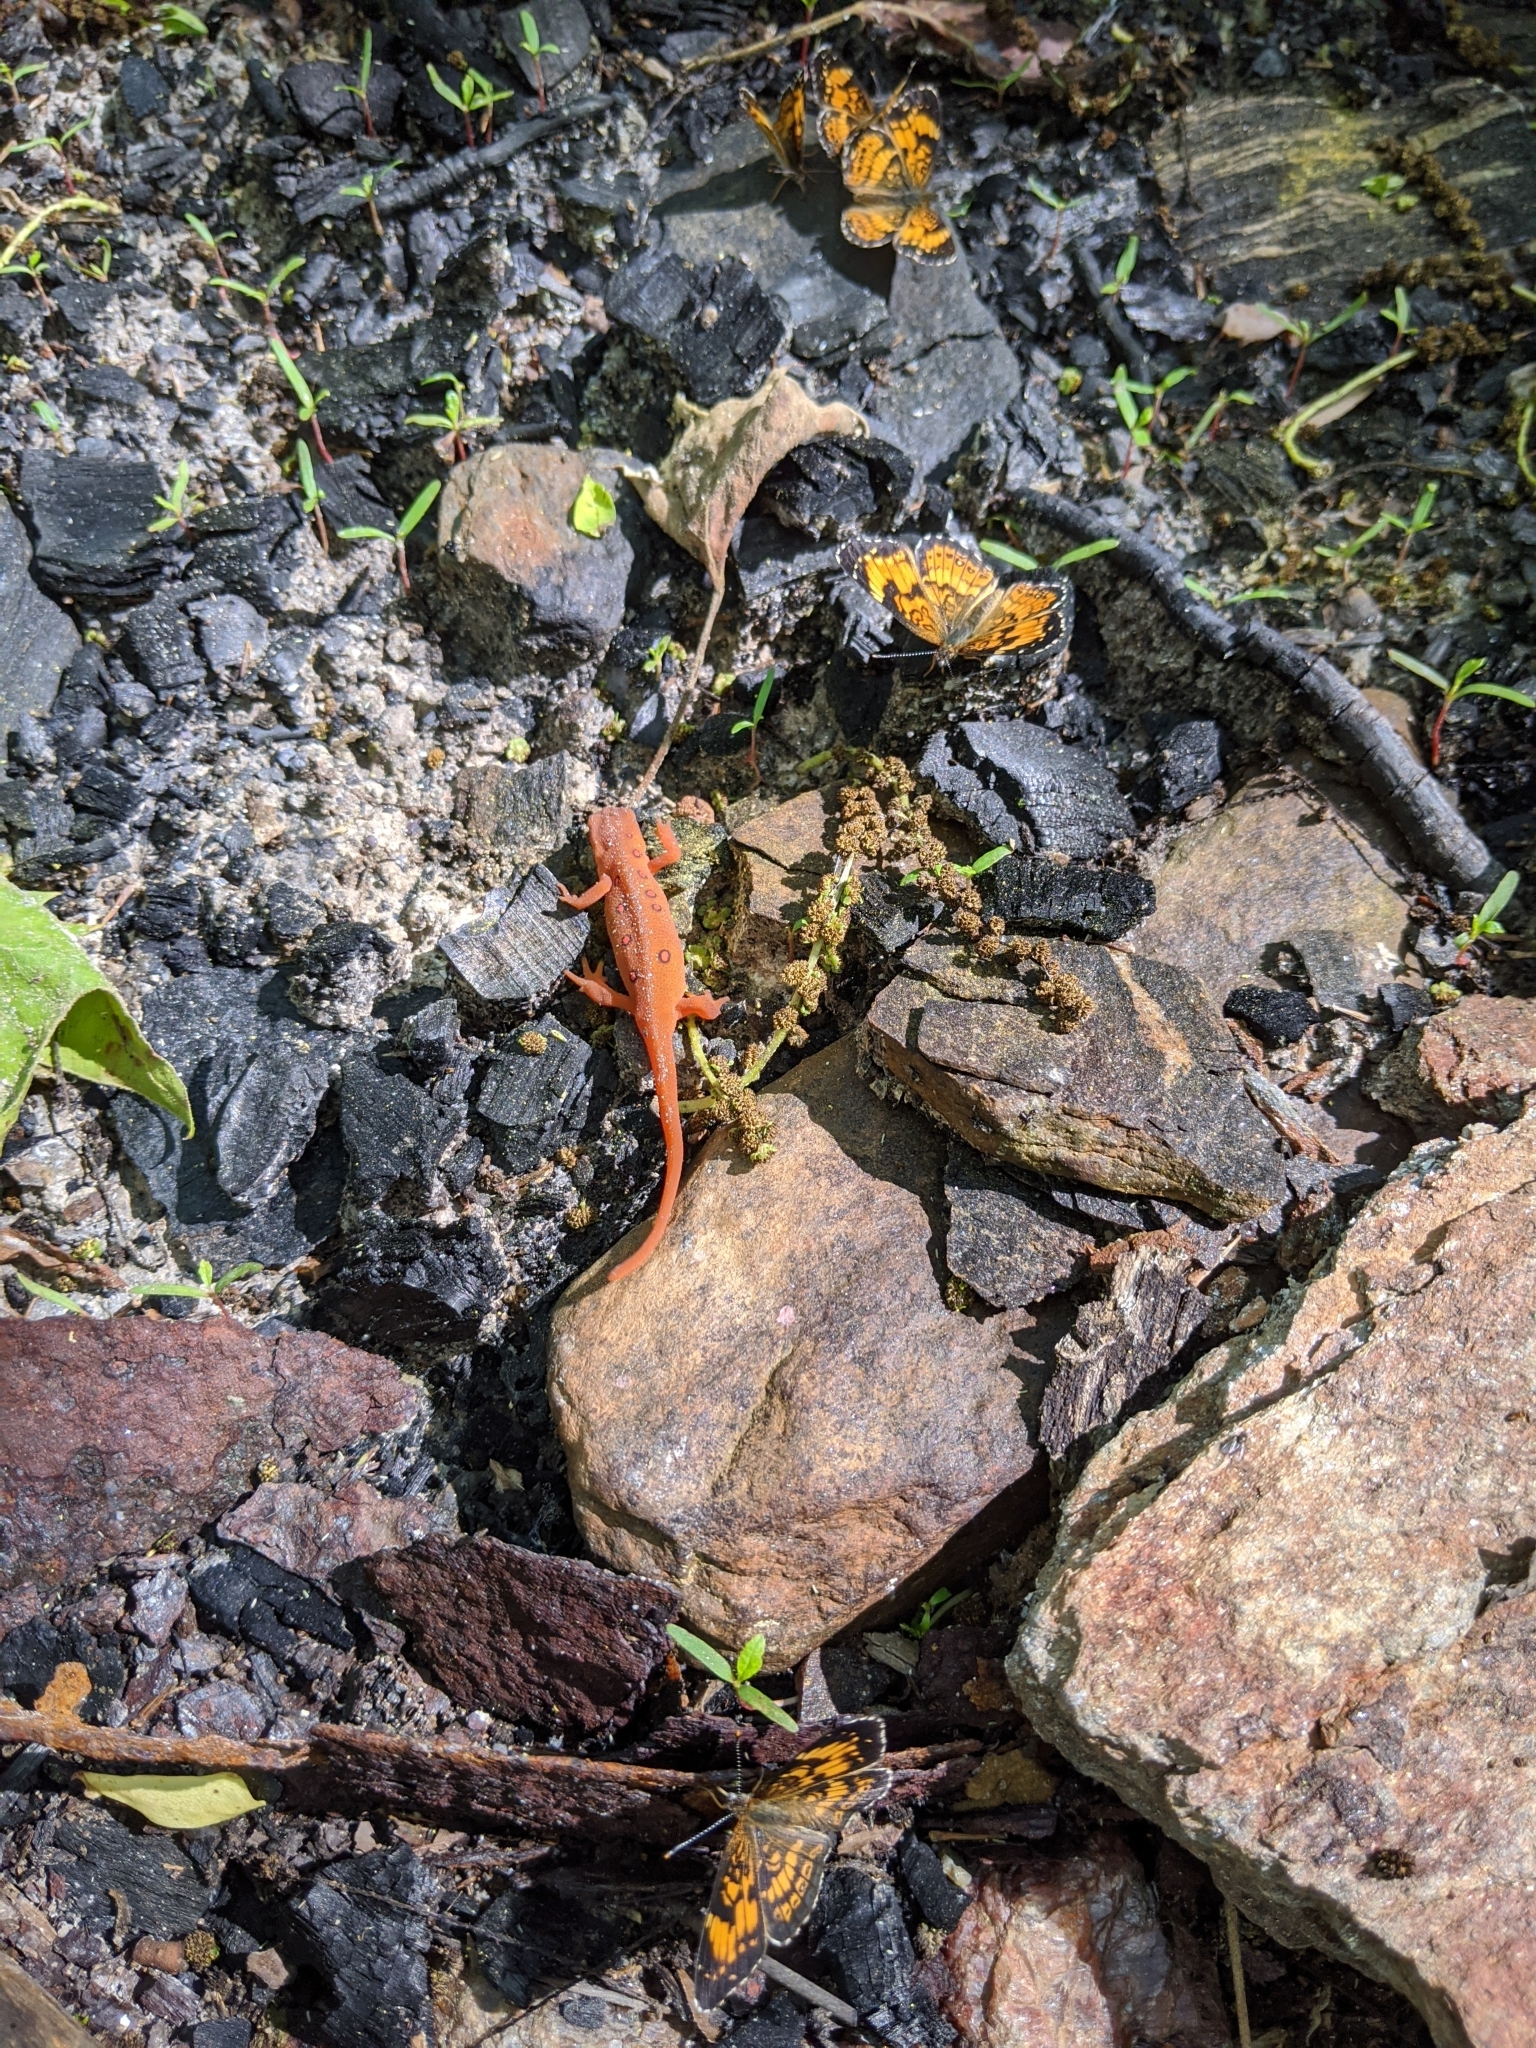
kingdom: Animalia
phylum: Chordata
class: Amphibia
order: Caudata
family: Salamandridae
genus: Notophthalmus
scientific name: Notophthalmus viridescens
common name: Eastern newt
